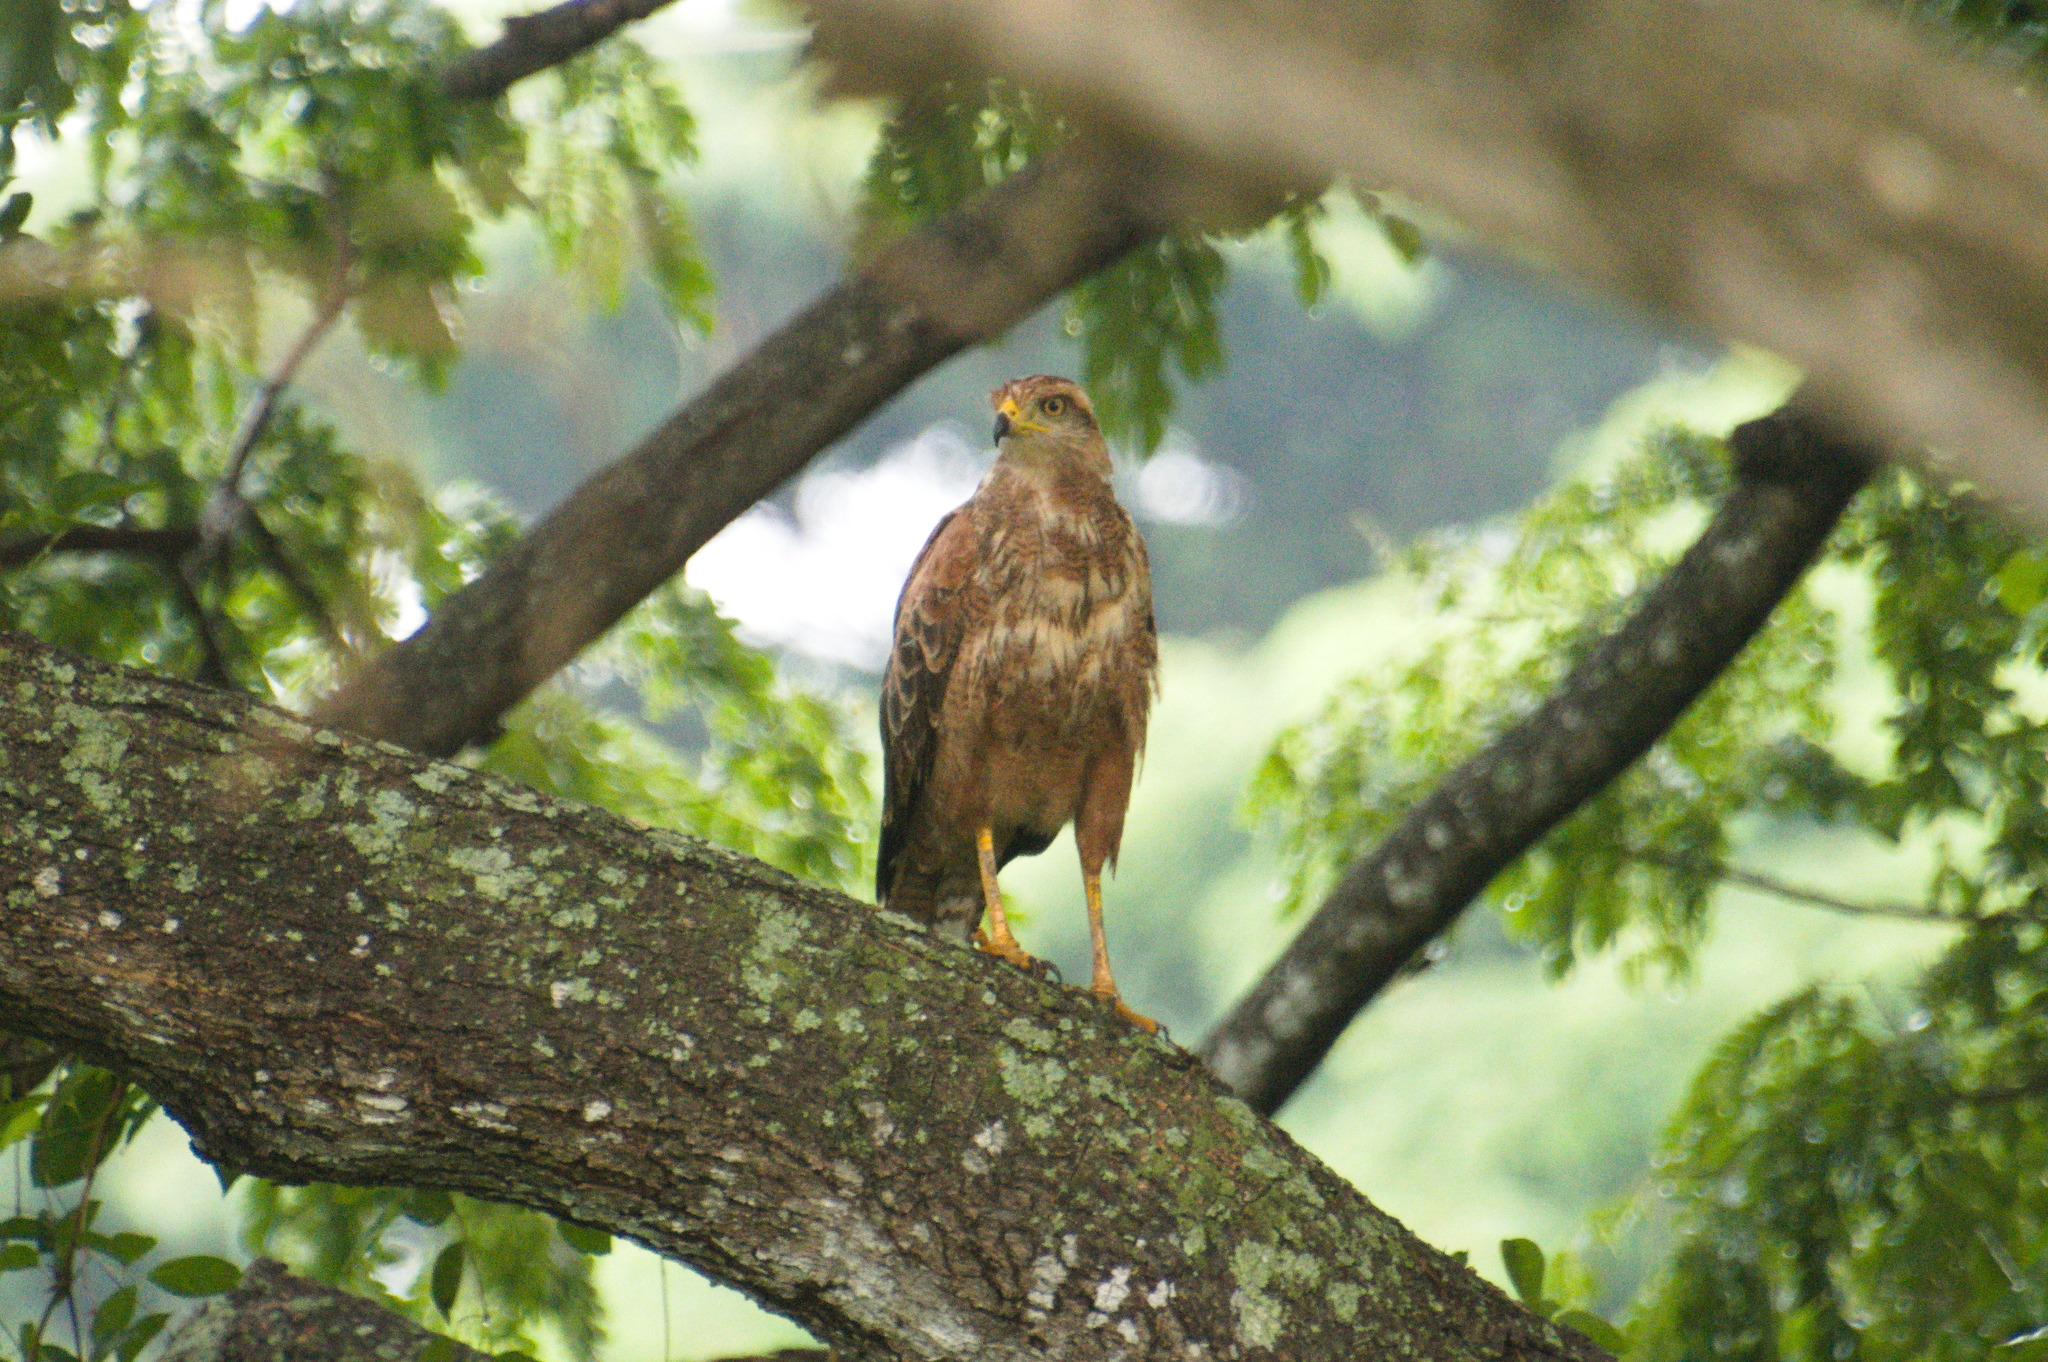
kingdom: Animalia
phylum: Chordata
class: Aves
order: Accipitriformes
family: Accipitridae
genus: Buteogallus
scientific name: Buteogallus meridionalis
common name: Savanna hawk
